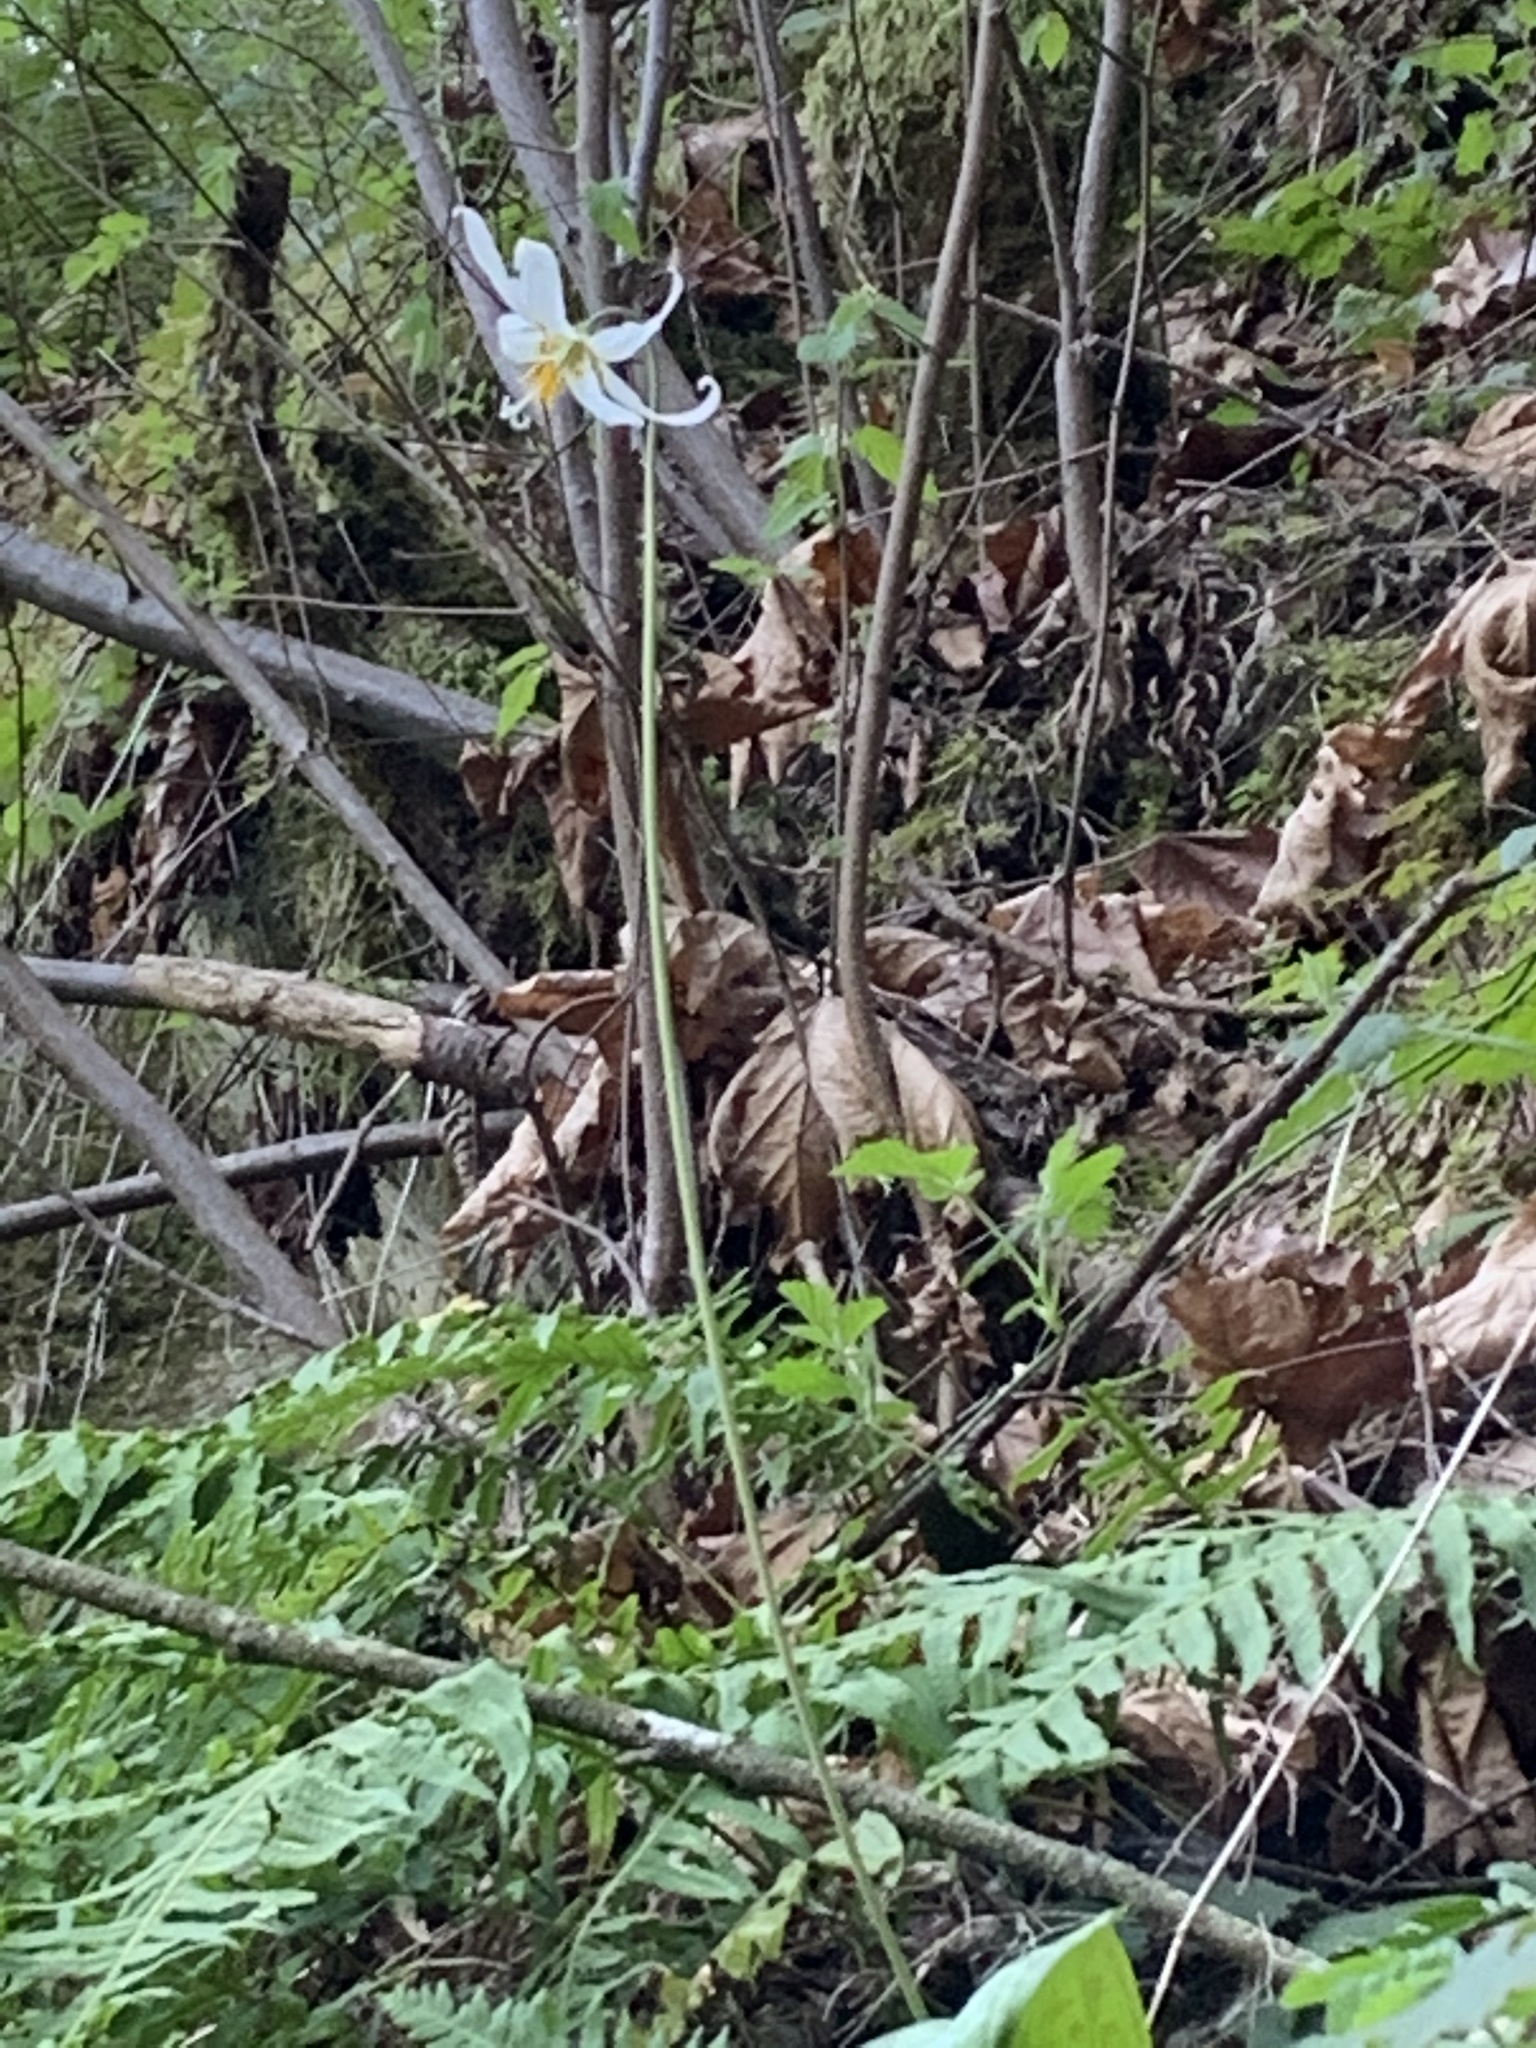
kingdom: Plantae
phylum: Tracheophyta
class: Liliopsida
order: Liliales
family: Liliaceae
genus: Erythronium
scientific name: Erythronium oregonum
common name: Giant adder's-tongue
